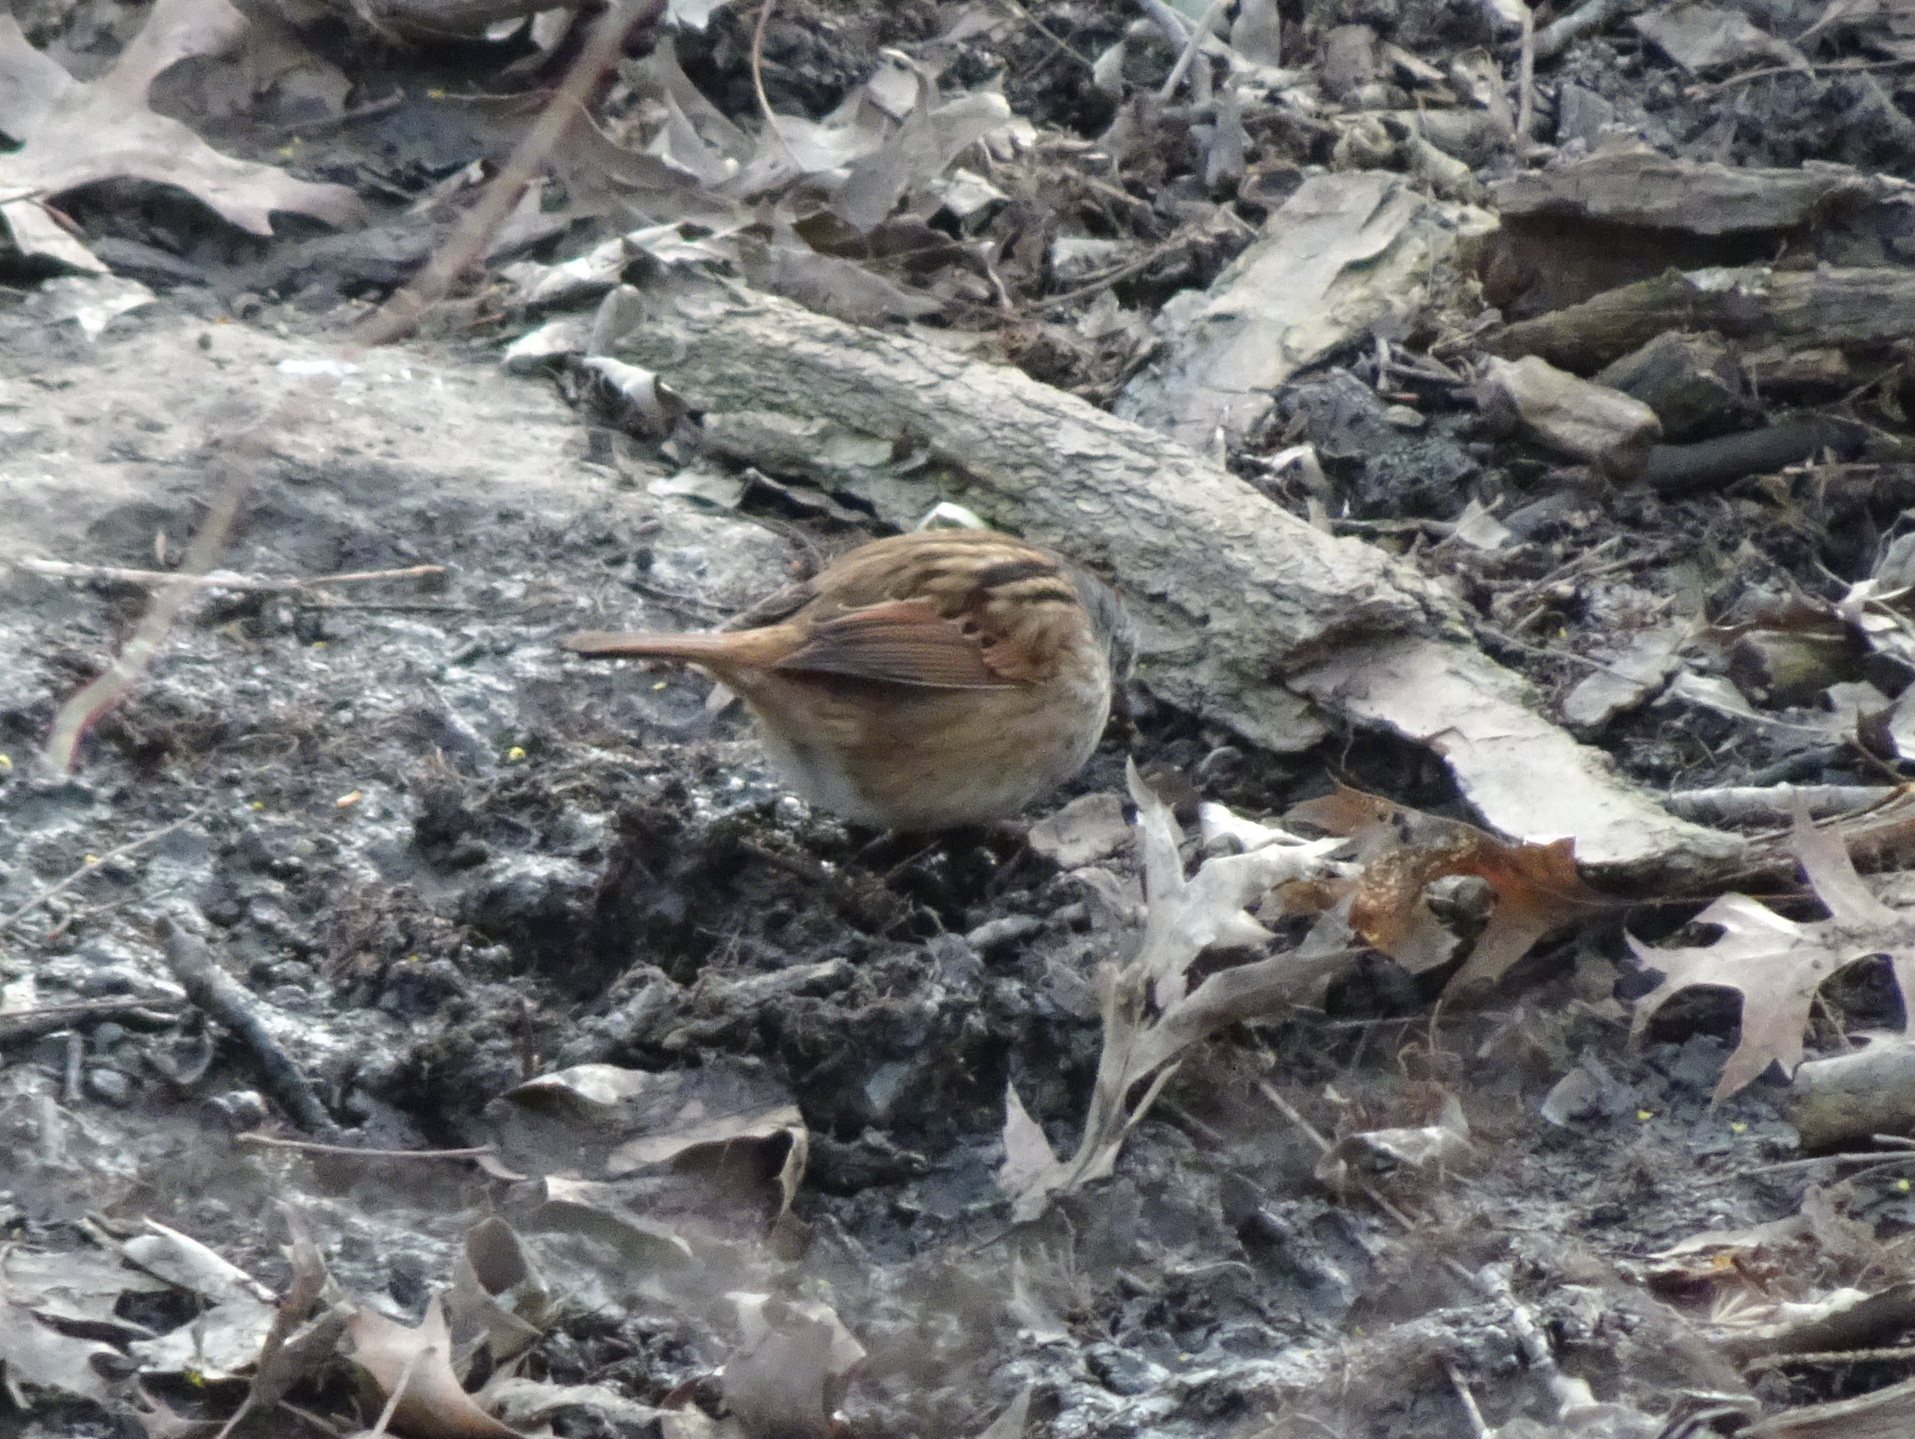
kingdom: Animalia
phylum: Chordata
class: Aves
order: Passeriformes
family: Passerellidae
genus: Melospiza
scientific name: Melospiza georgiana
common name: Swamp sparrow
